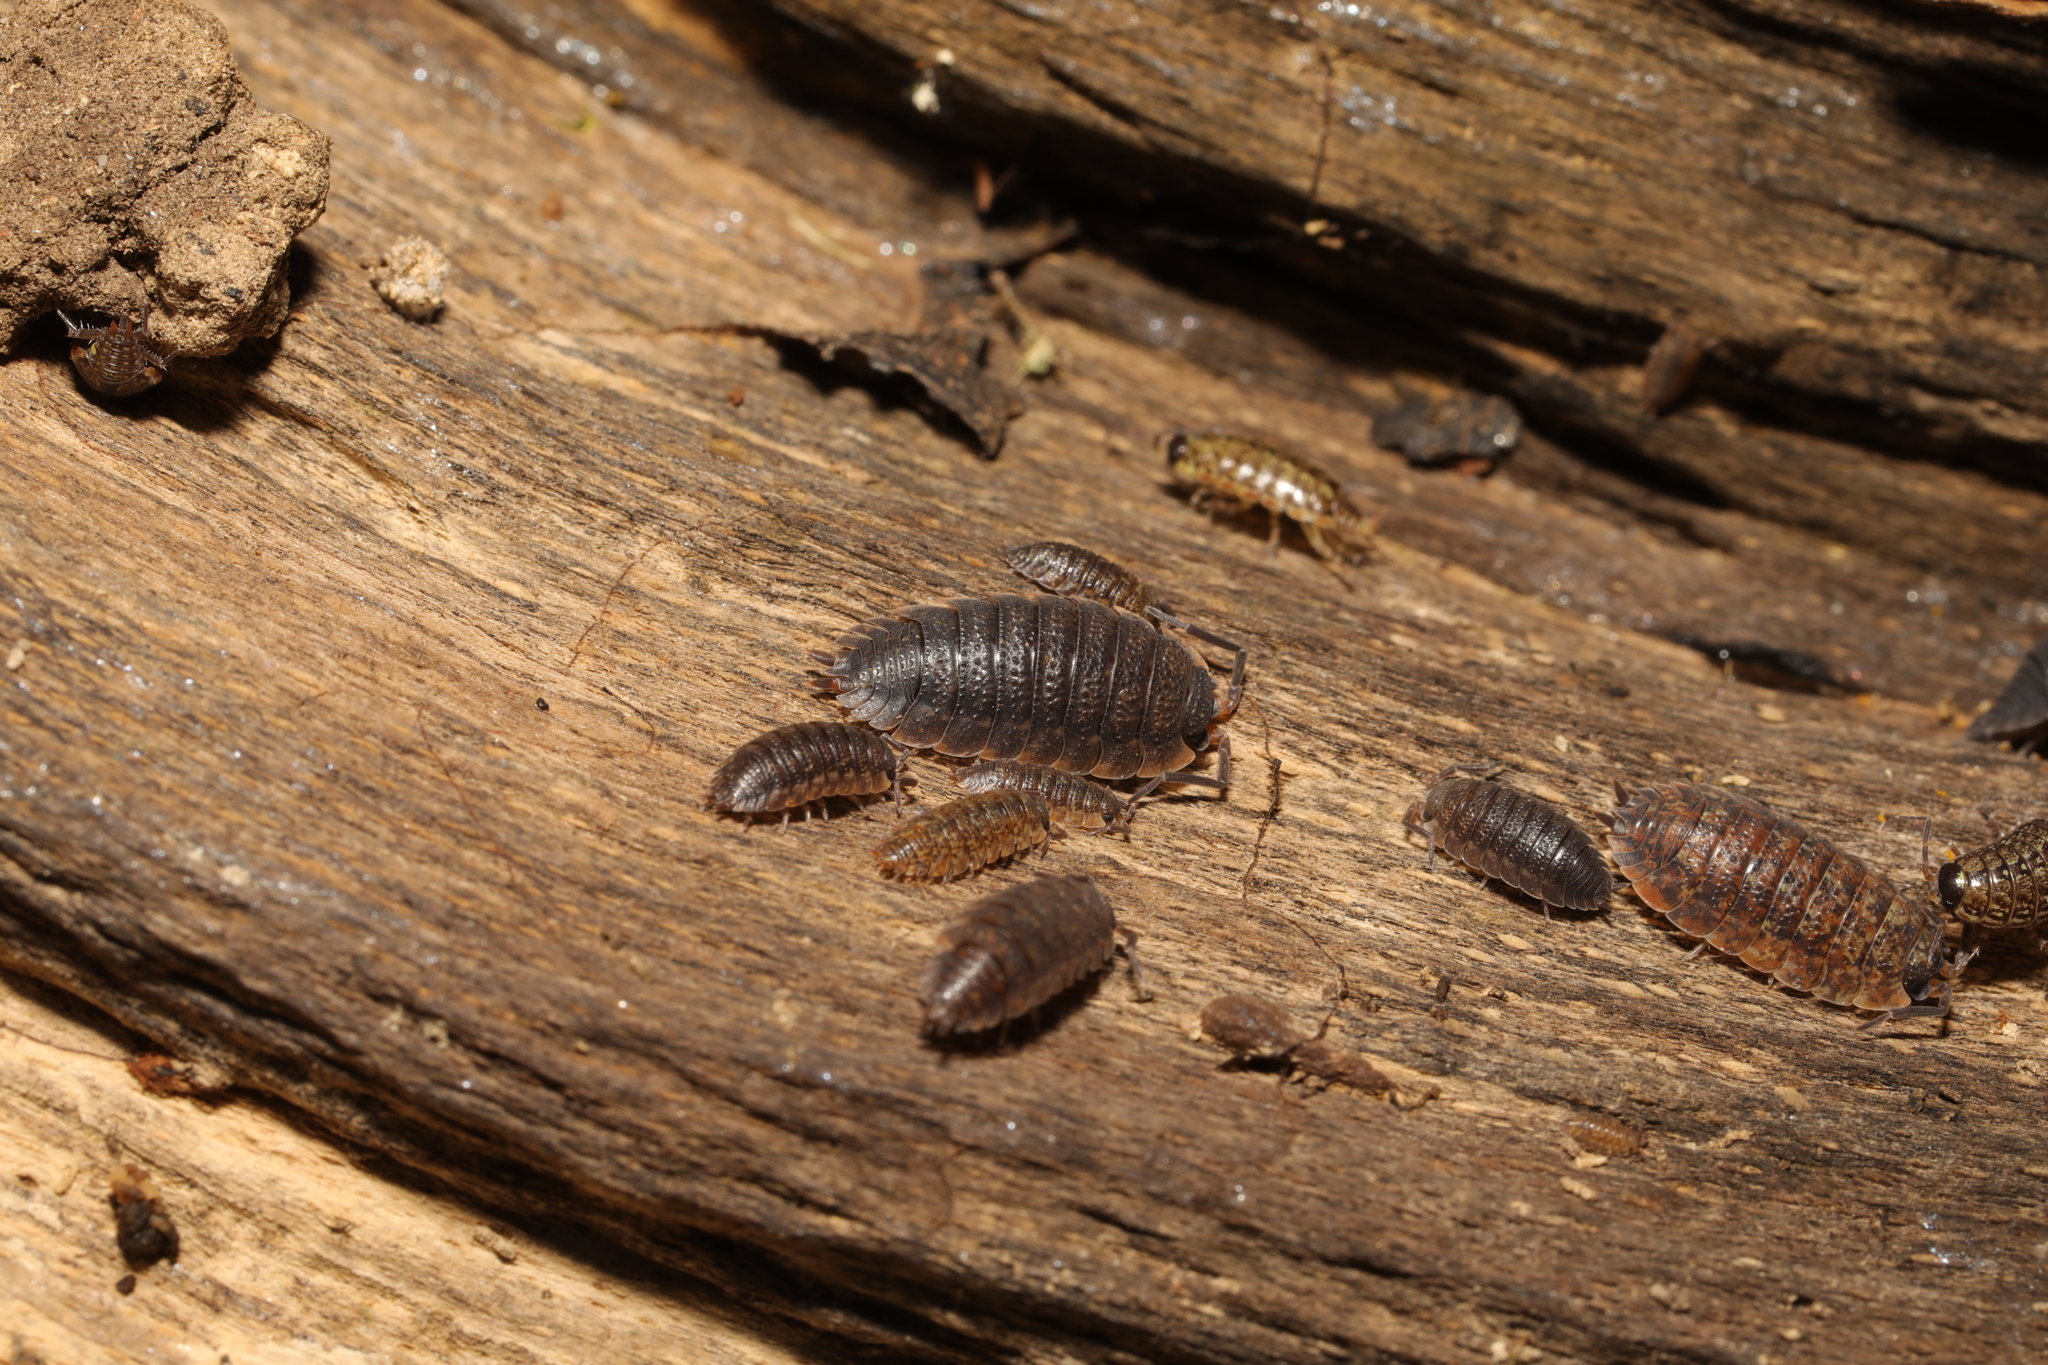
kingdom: Animalia
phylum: Arthropoda
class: Malacostraca
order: Isopoda
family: Porcellionidae
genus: Porcellio
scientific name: Porcellio scaber
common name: Common rough woodlouse
